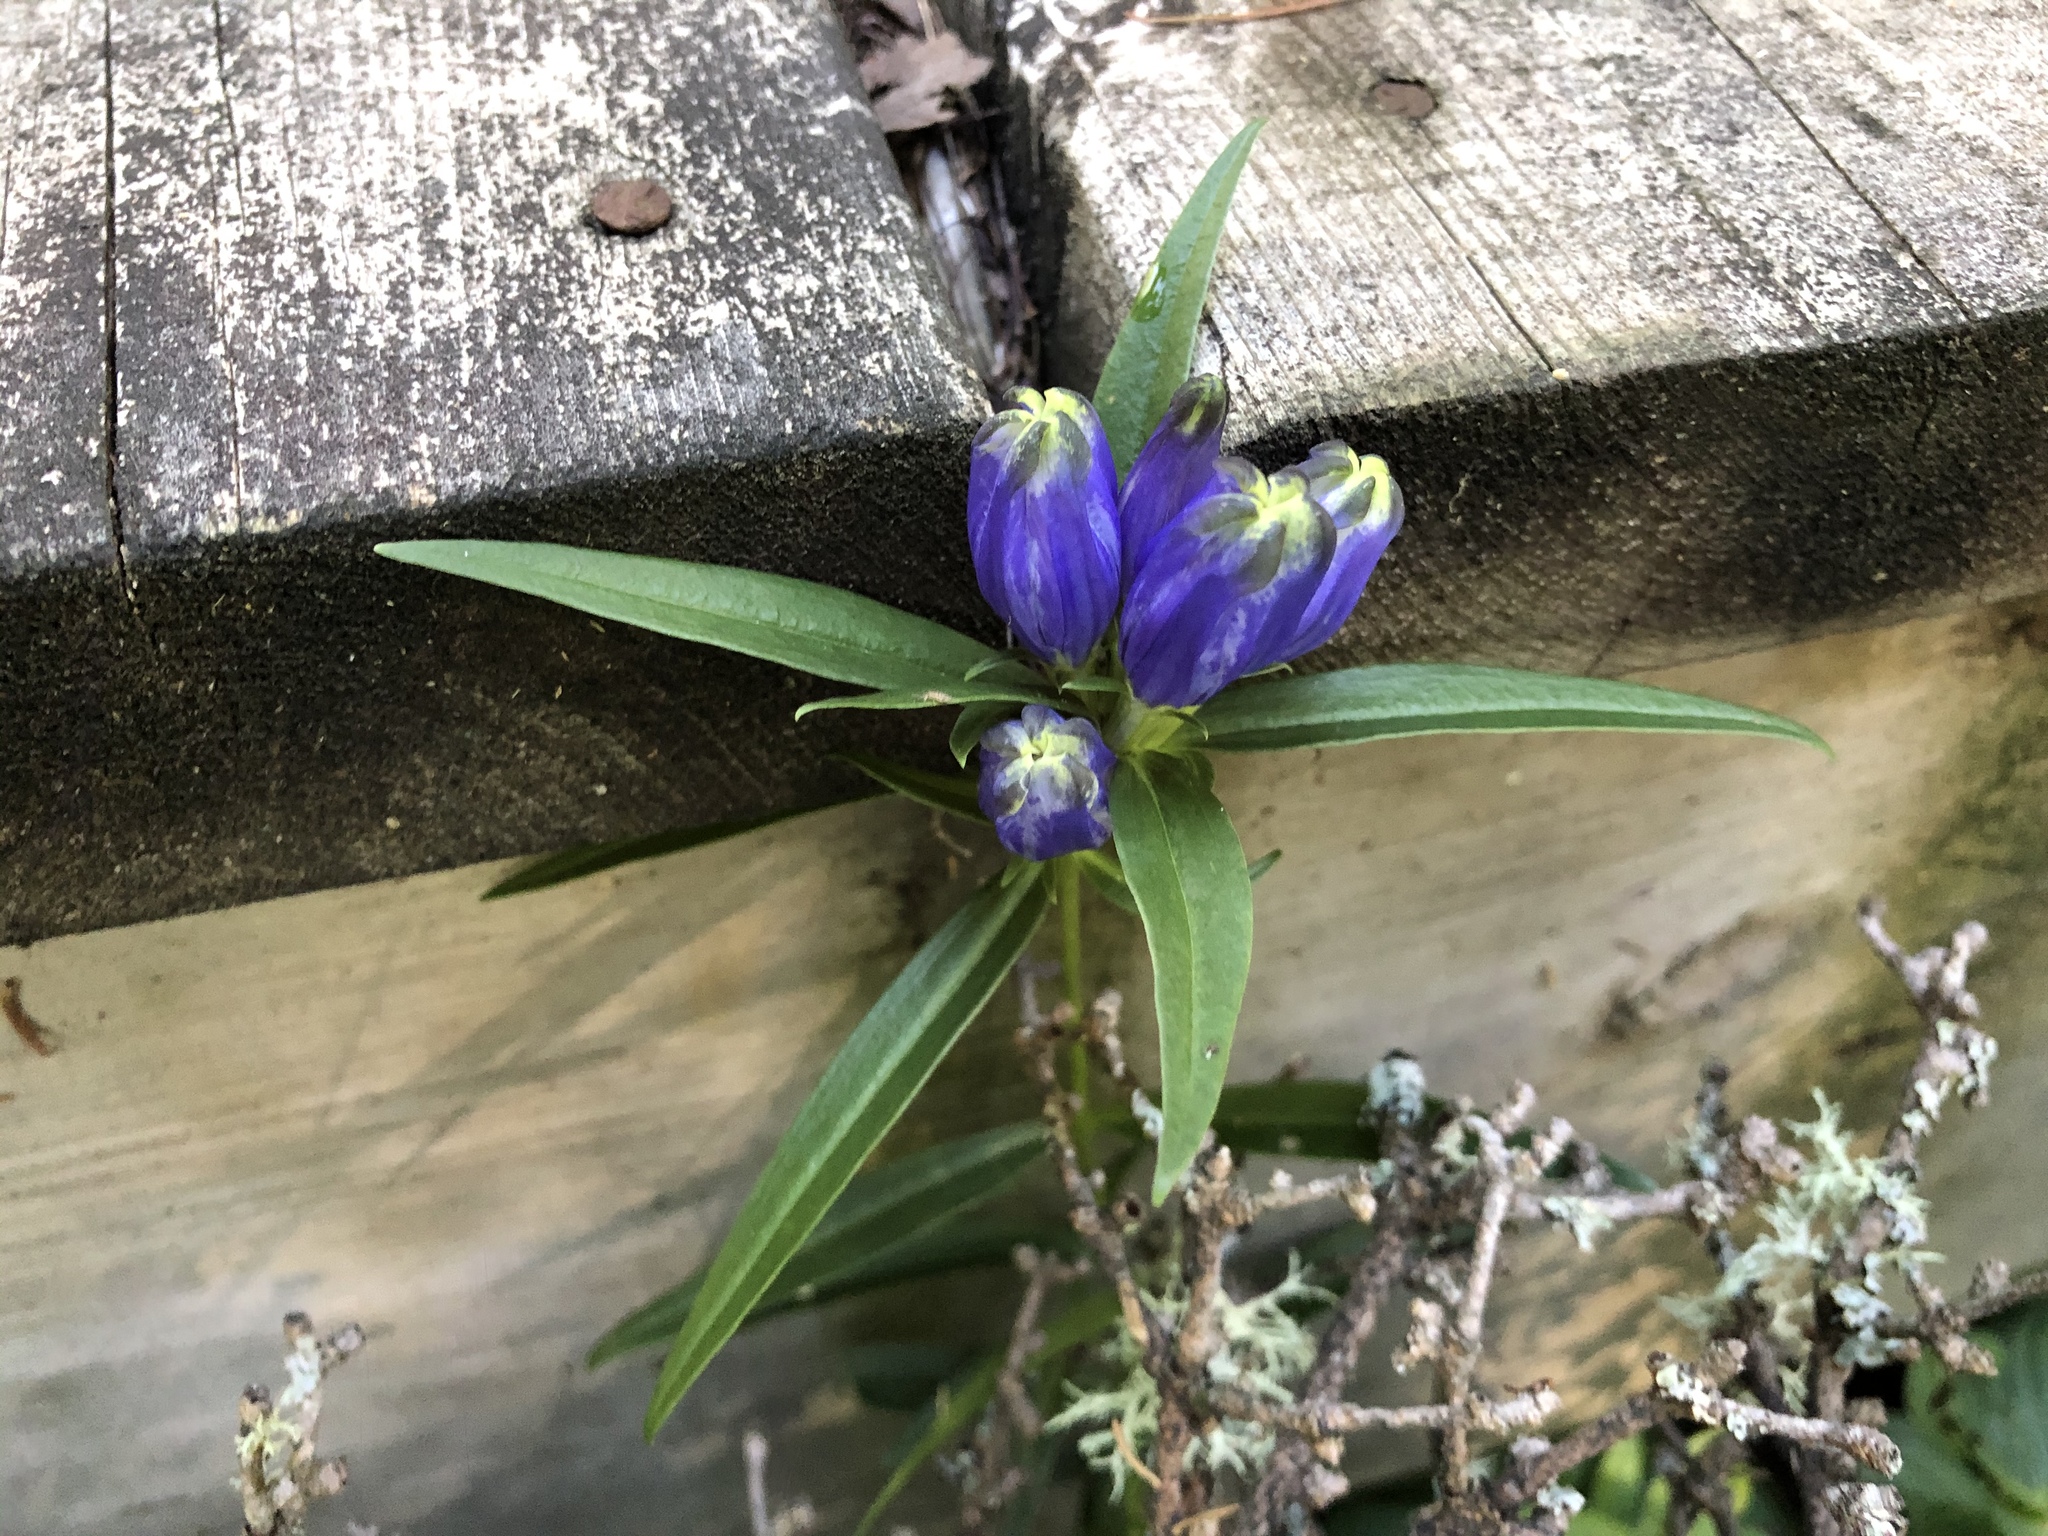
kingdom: Plantae
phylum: Tracheophyta
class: Magnoliopsida
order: Gentianales
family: Gentianaceae
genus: Gentiana
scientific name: Gentiana linearis
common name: Bastard gentian
